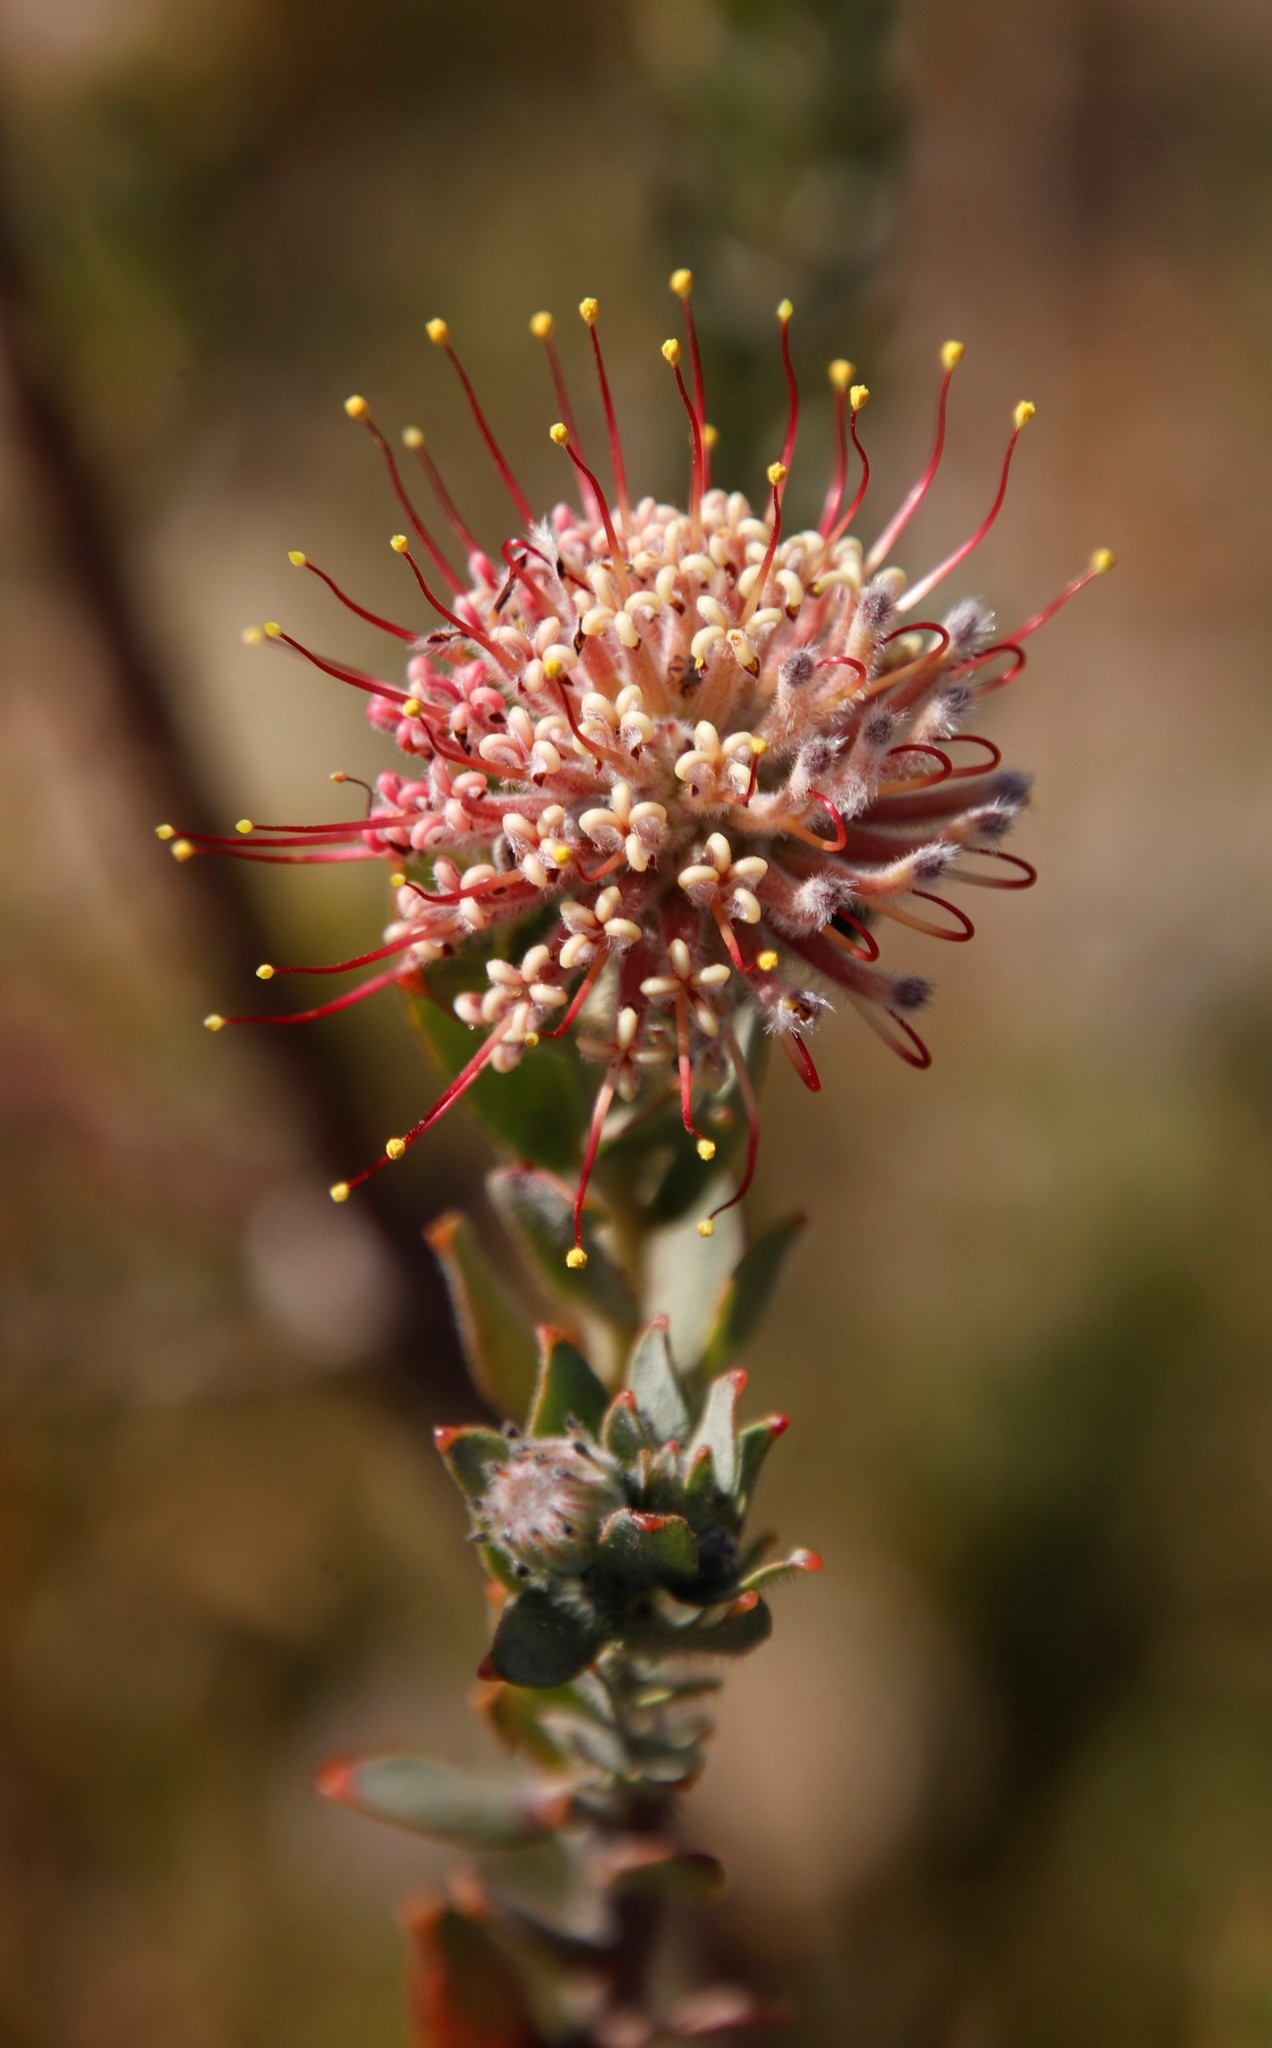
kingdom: Plantae
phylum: Tracheophyta
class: Magnoliopsida
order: Proteales
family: Proteaceae
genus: Leucospermum
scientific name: Leucospermum calligerum
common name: Arid pincushion
